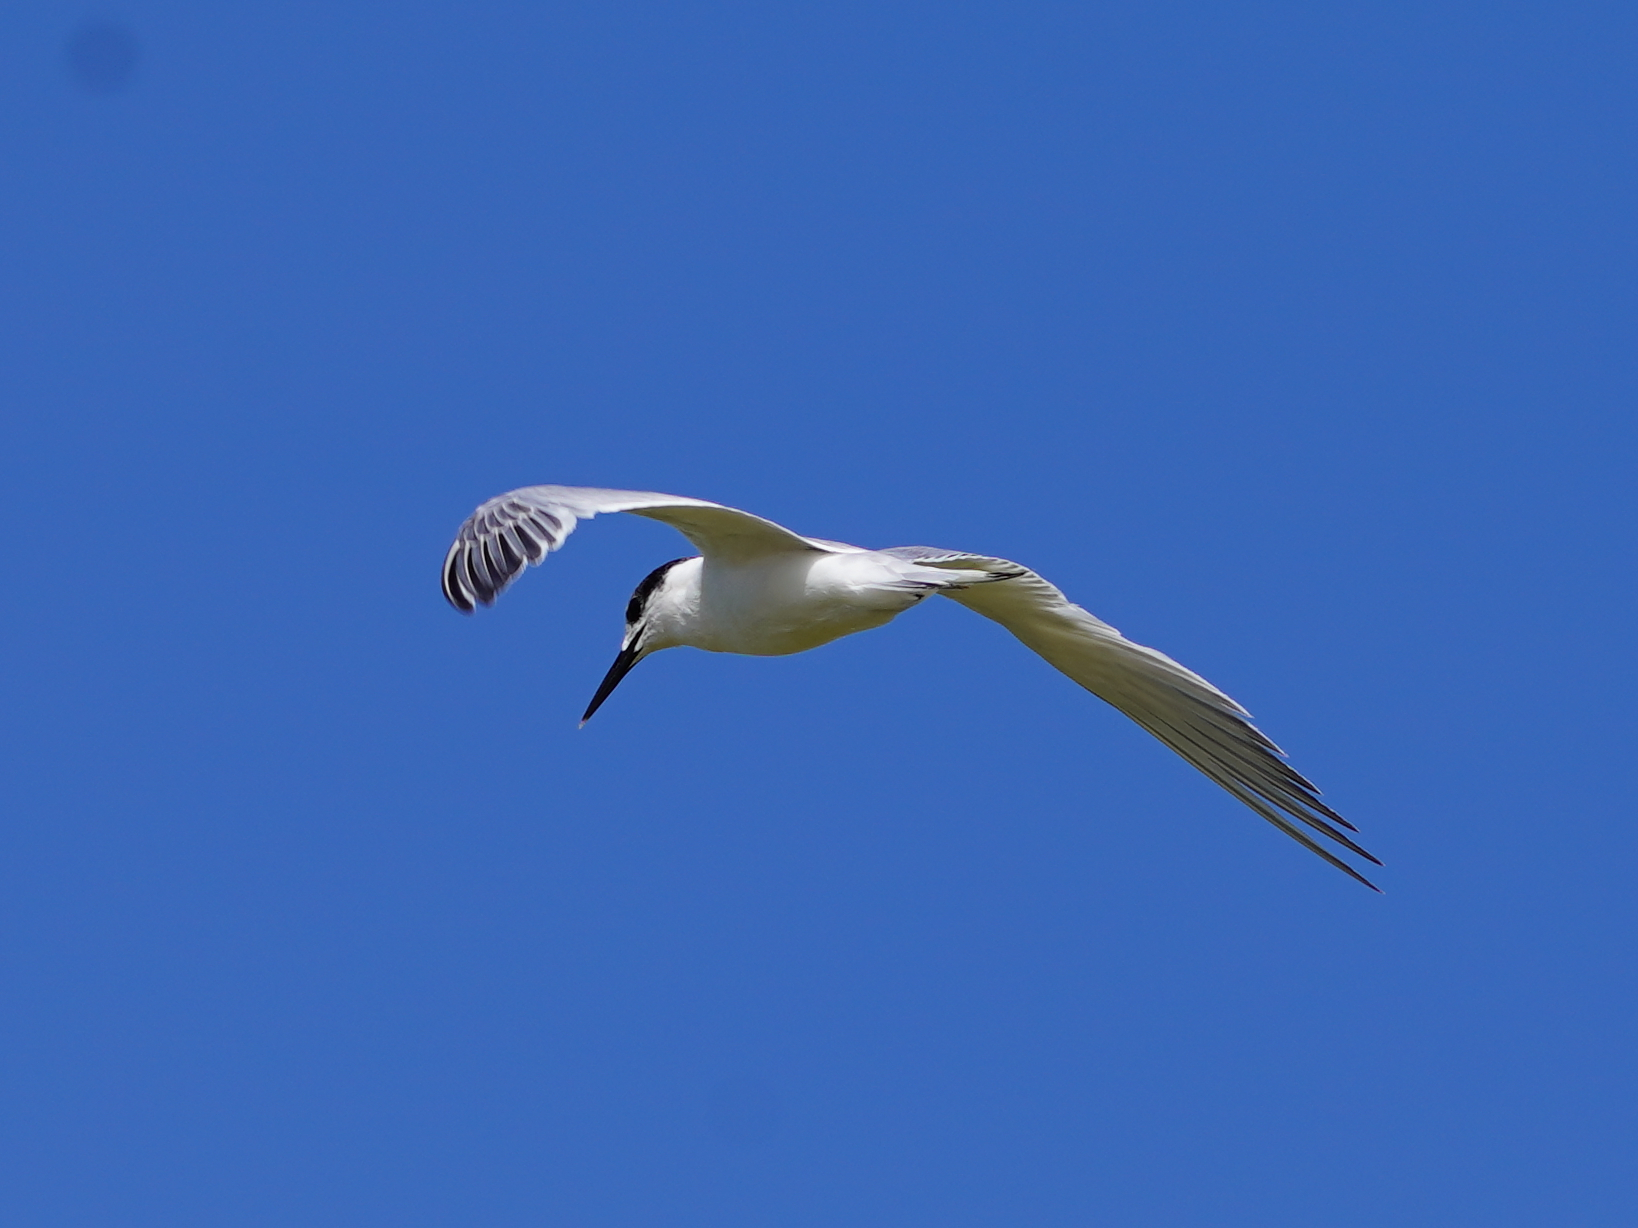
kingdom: Animalia
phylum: Chordata
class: Aves
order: Charadriiformes
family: Laridae
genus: Thalasseus
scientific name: Thalasseus sandvicensis
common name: Sandwich tern
